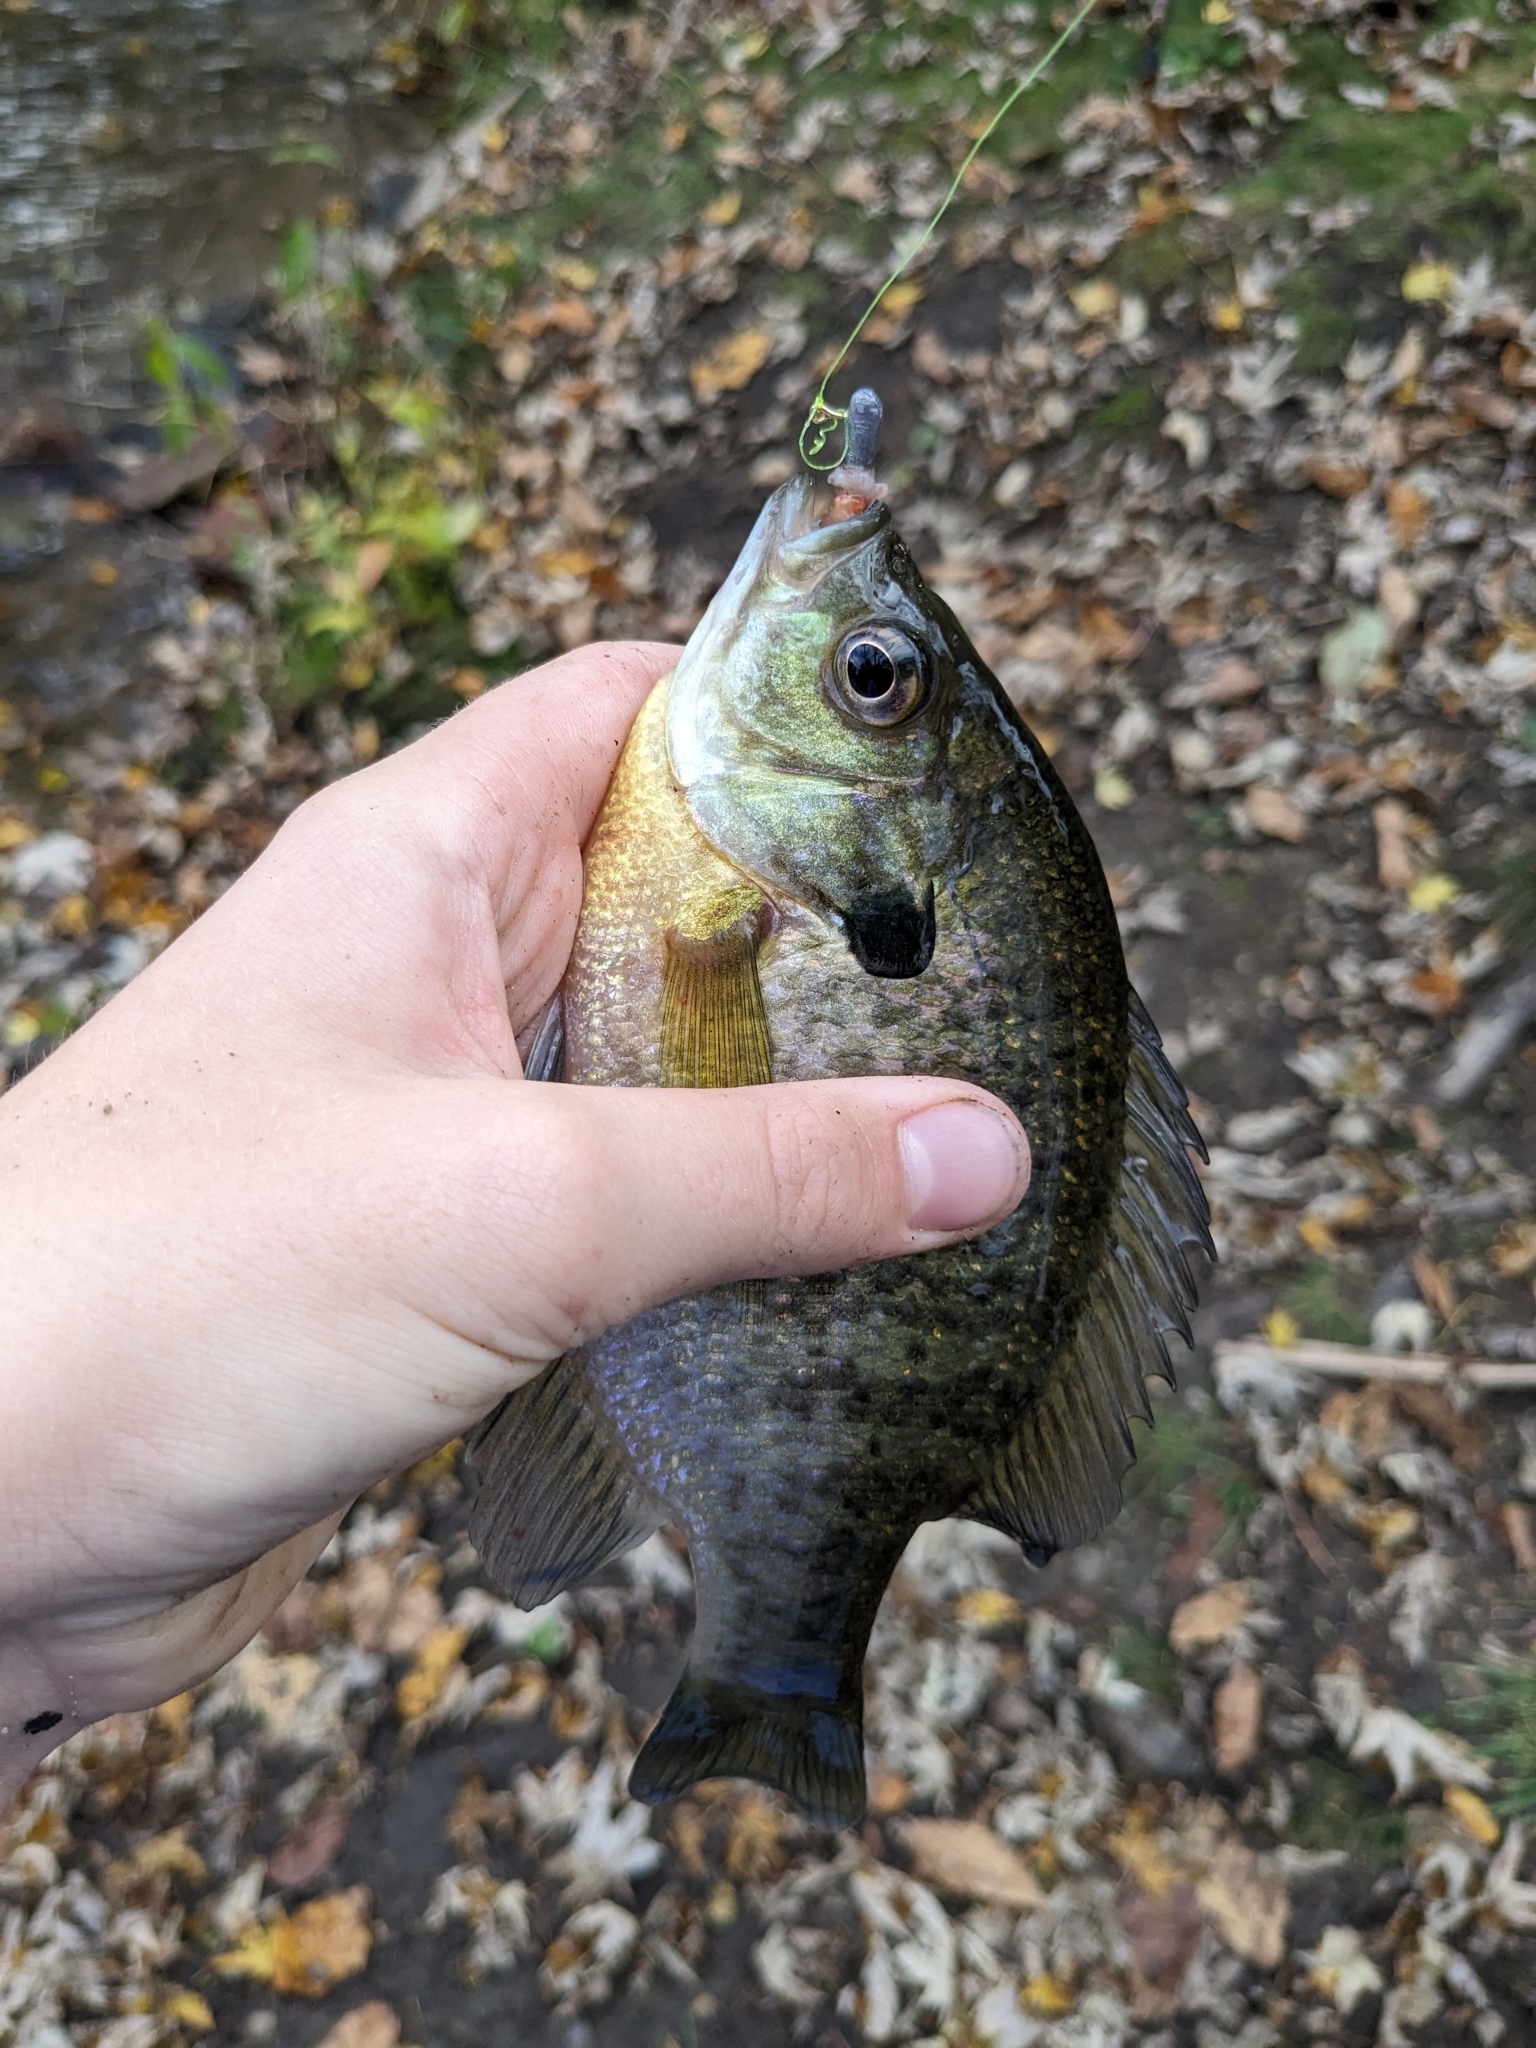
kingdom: Animalia
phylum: Chordata
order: Perciformes
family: Centrarchidae
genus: Lepomis
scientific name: Lepomis macrochirus
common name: Bluegill
